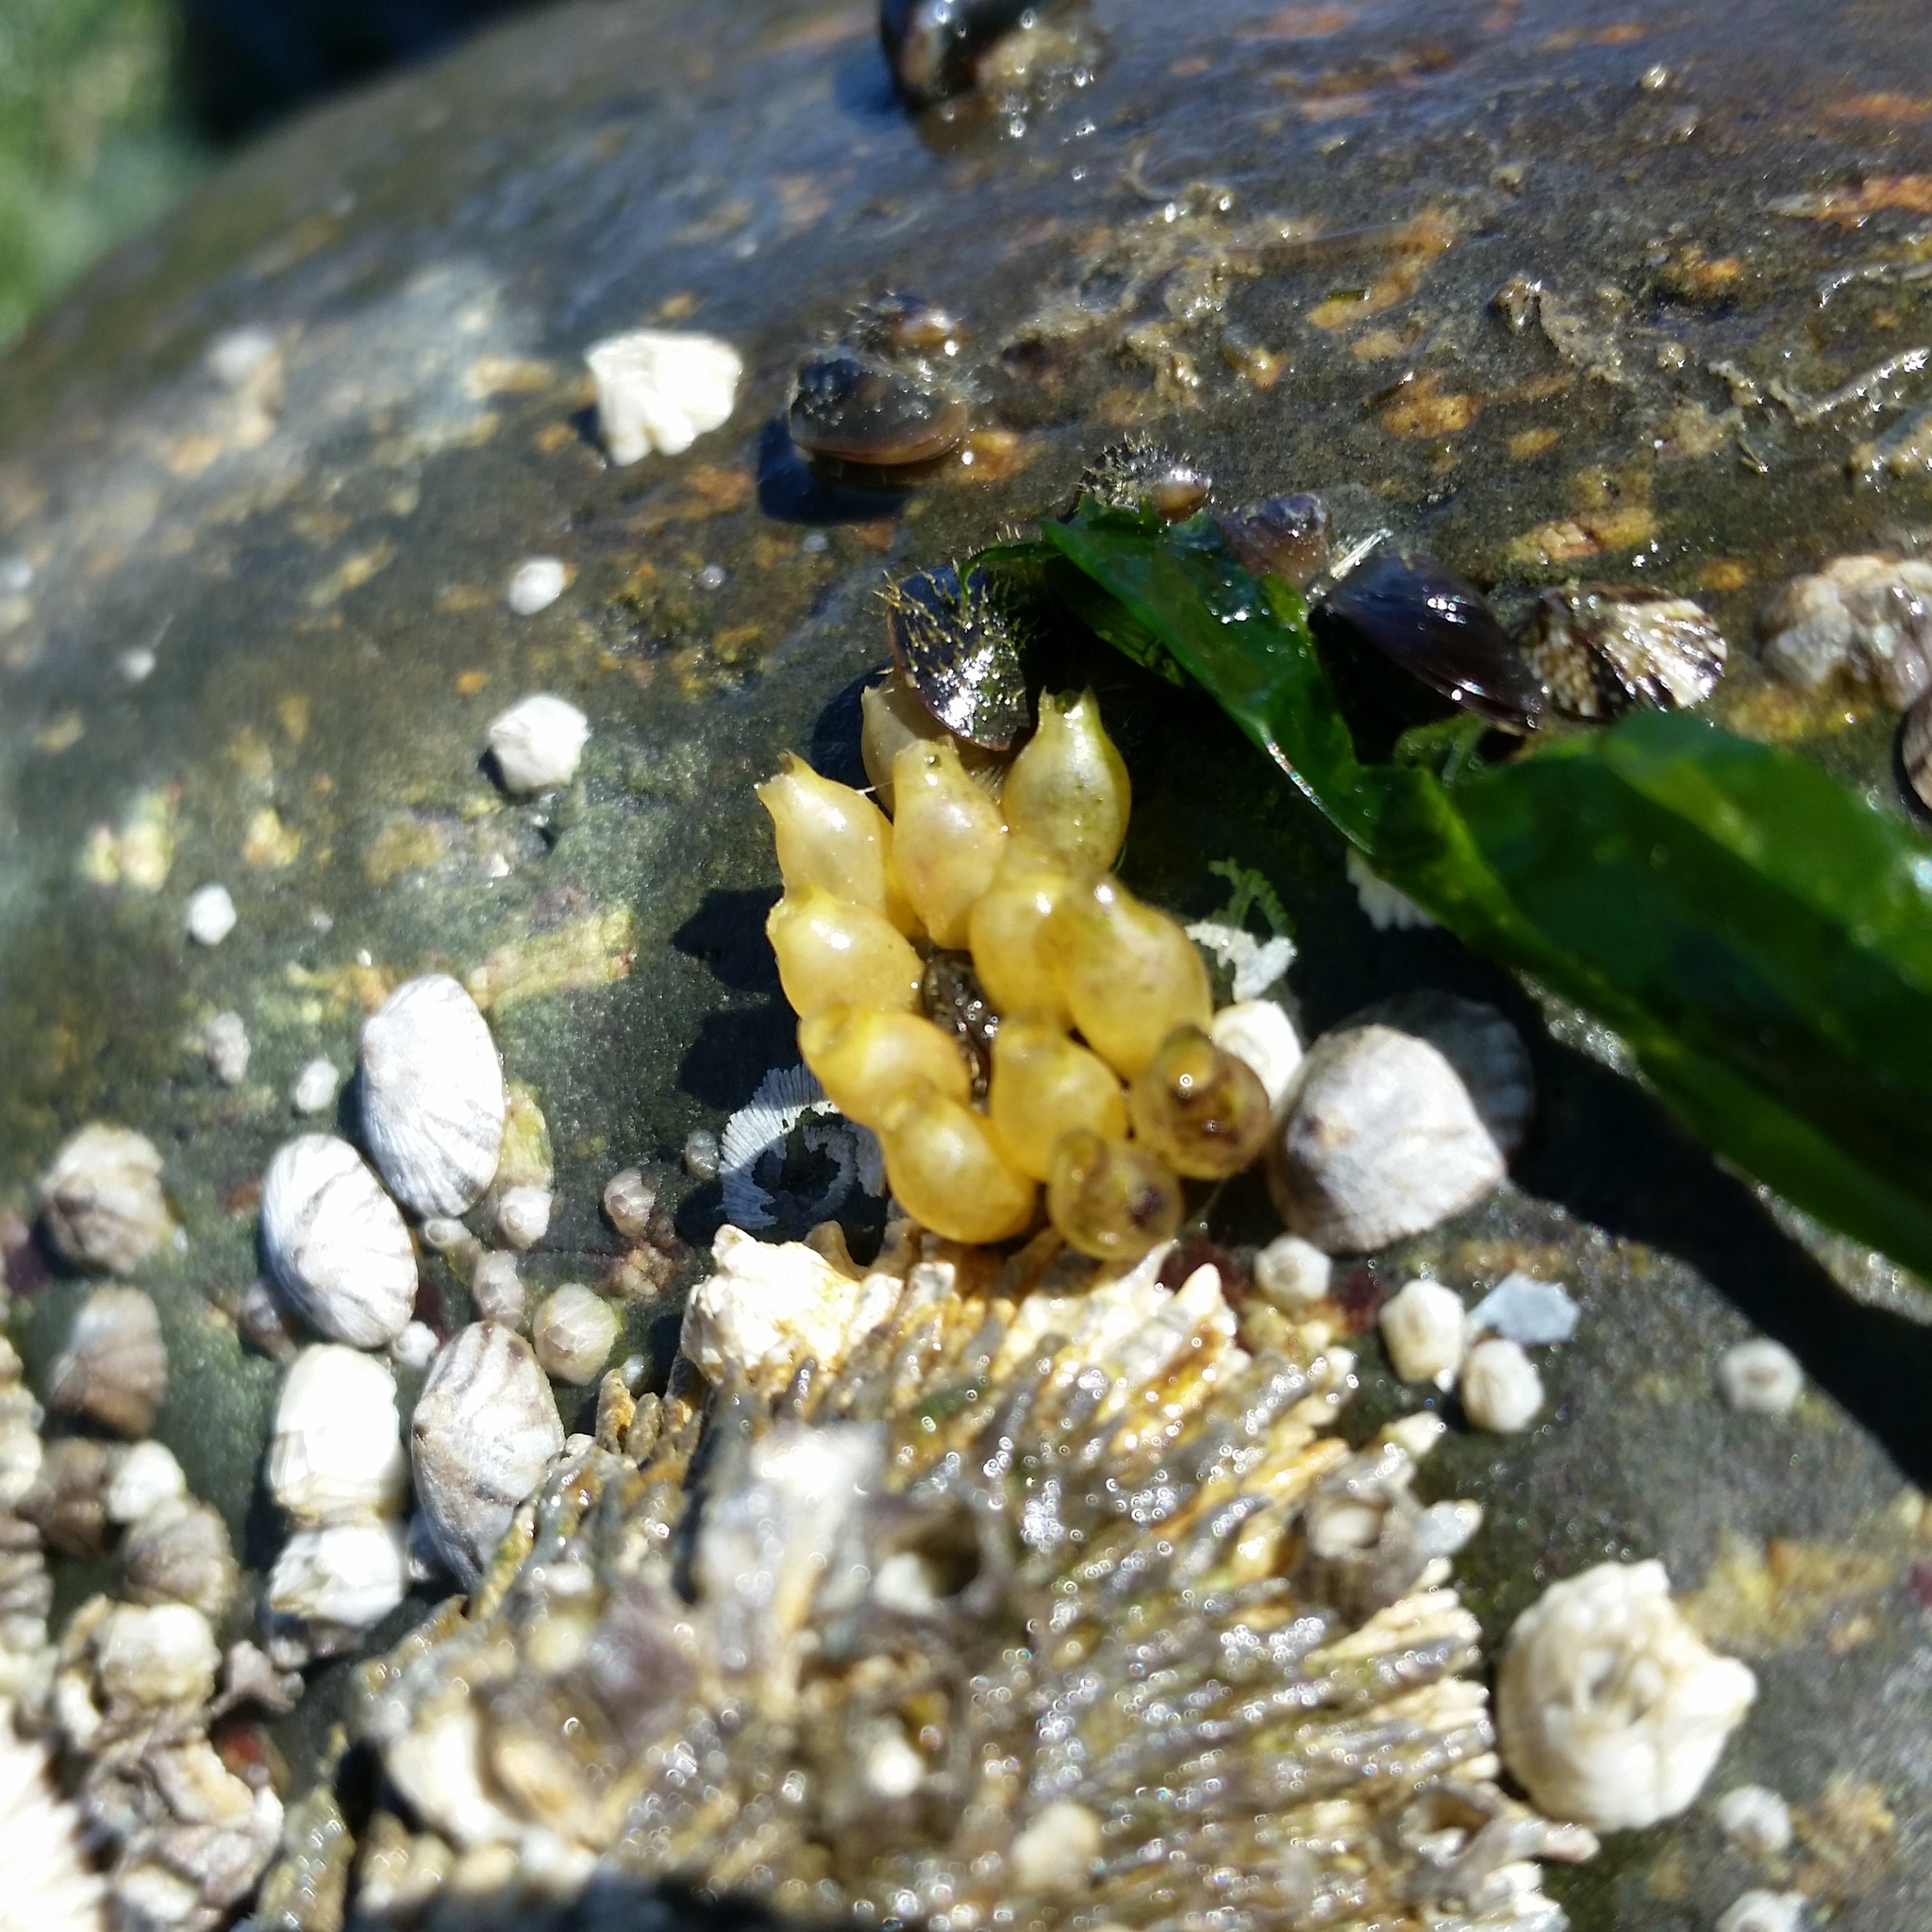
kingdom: Animalia
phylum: Mollusca
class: Gastropoda
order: Neogastropoda
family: Muricidae
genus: Nucella
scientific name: Nucella ostrina
